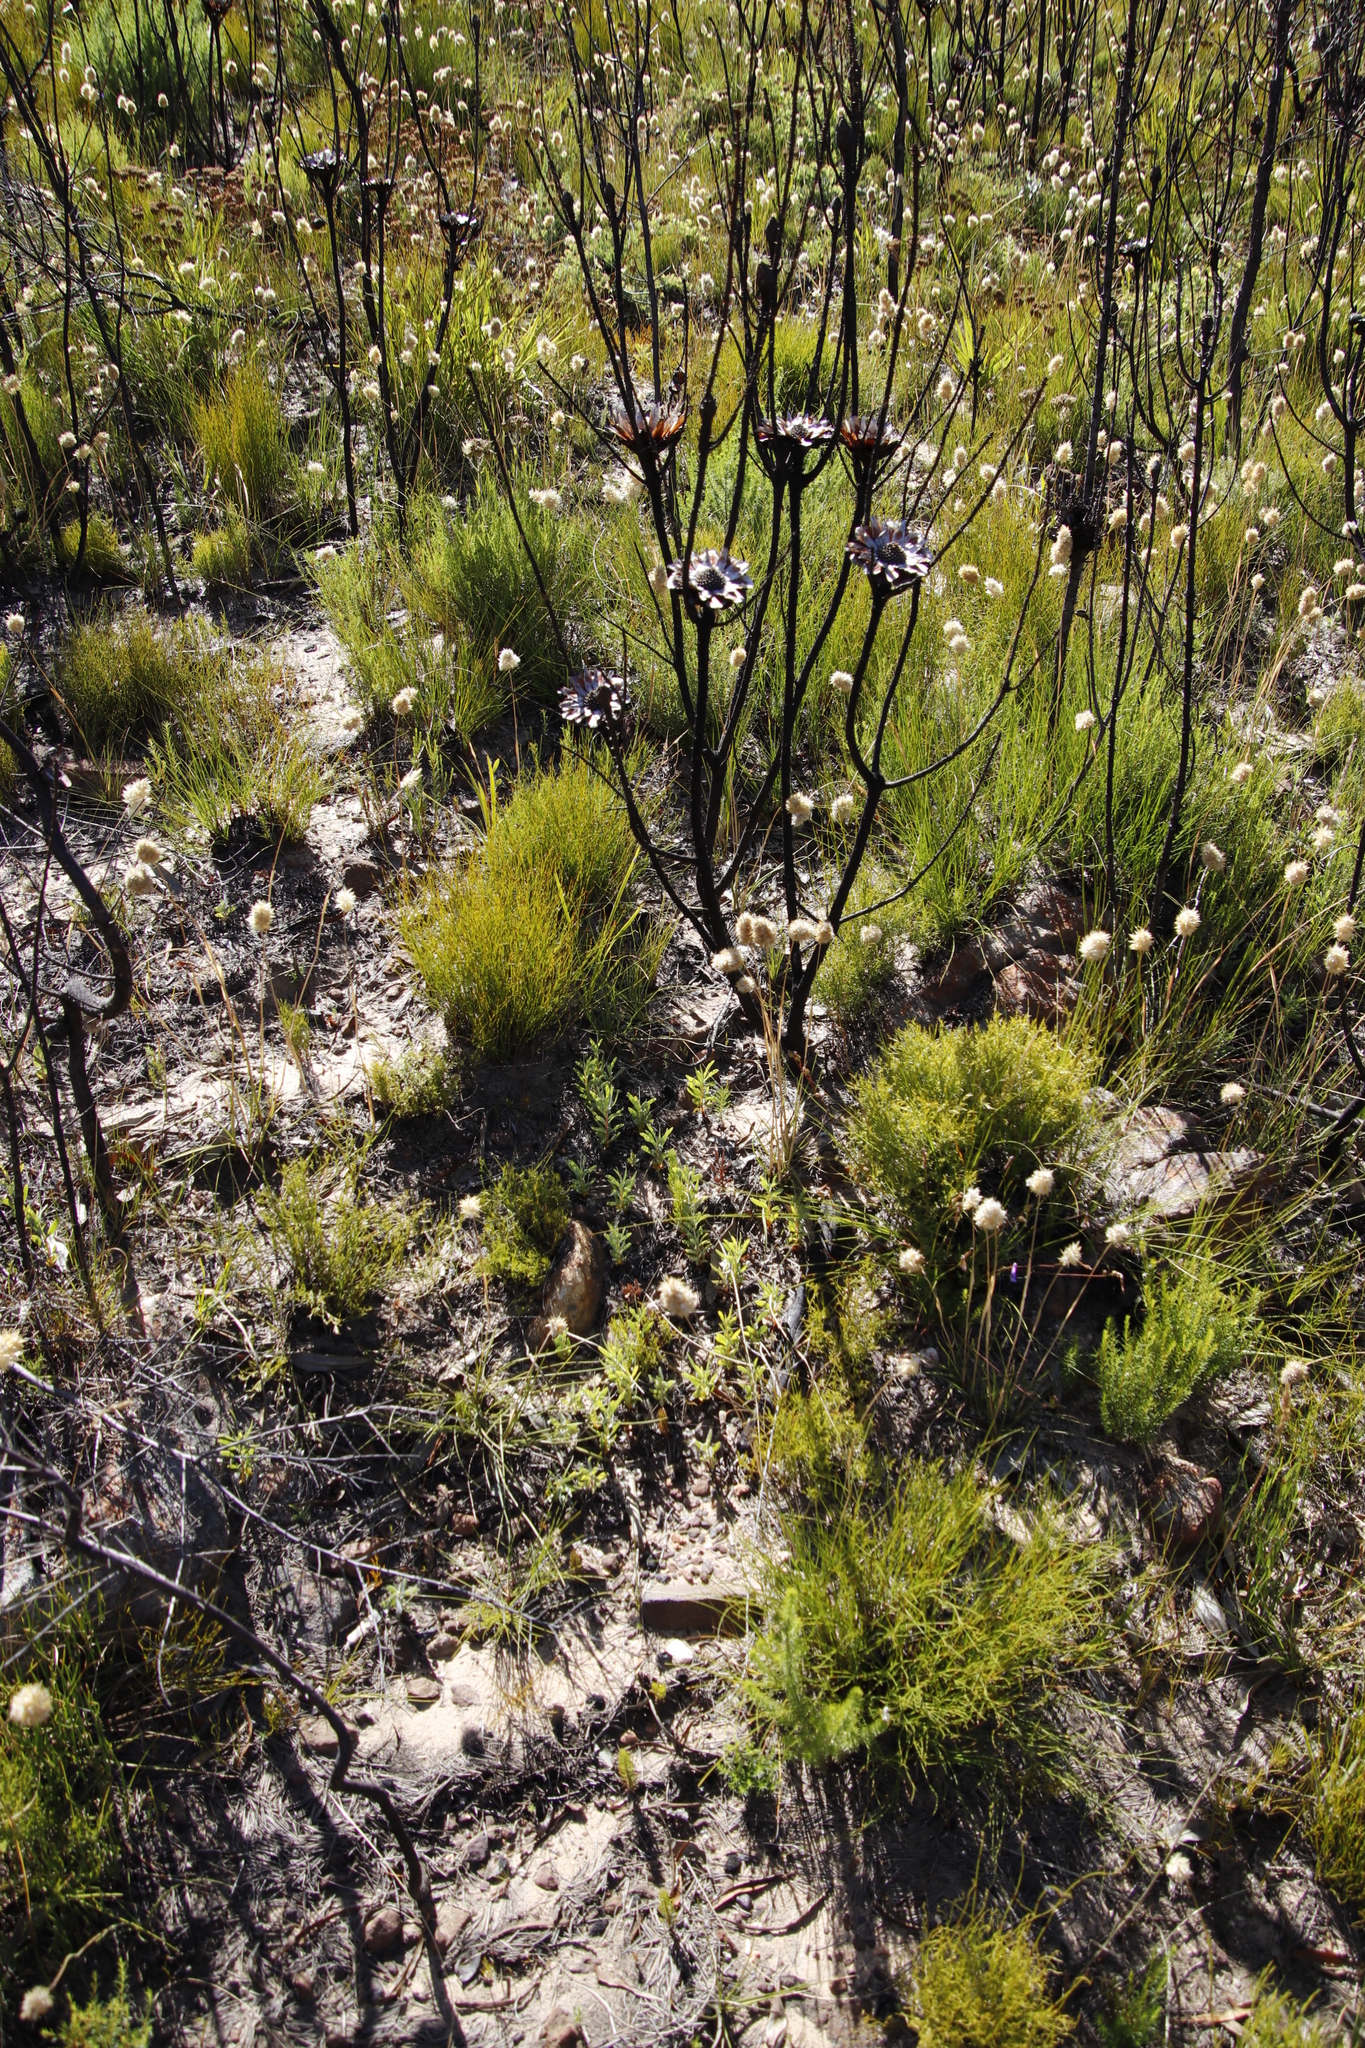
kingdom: Plantae
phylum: Tracheophyta
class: Magnoliopsida
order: Proteales
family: Proteaceae
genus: Protea
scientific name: Protea repens
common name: Sugarbush
